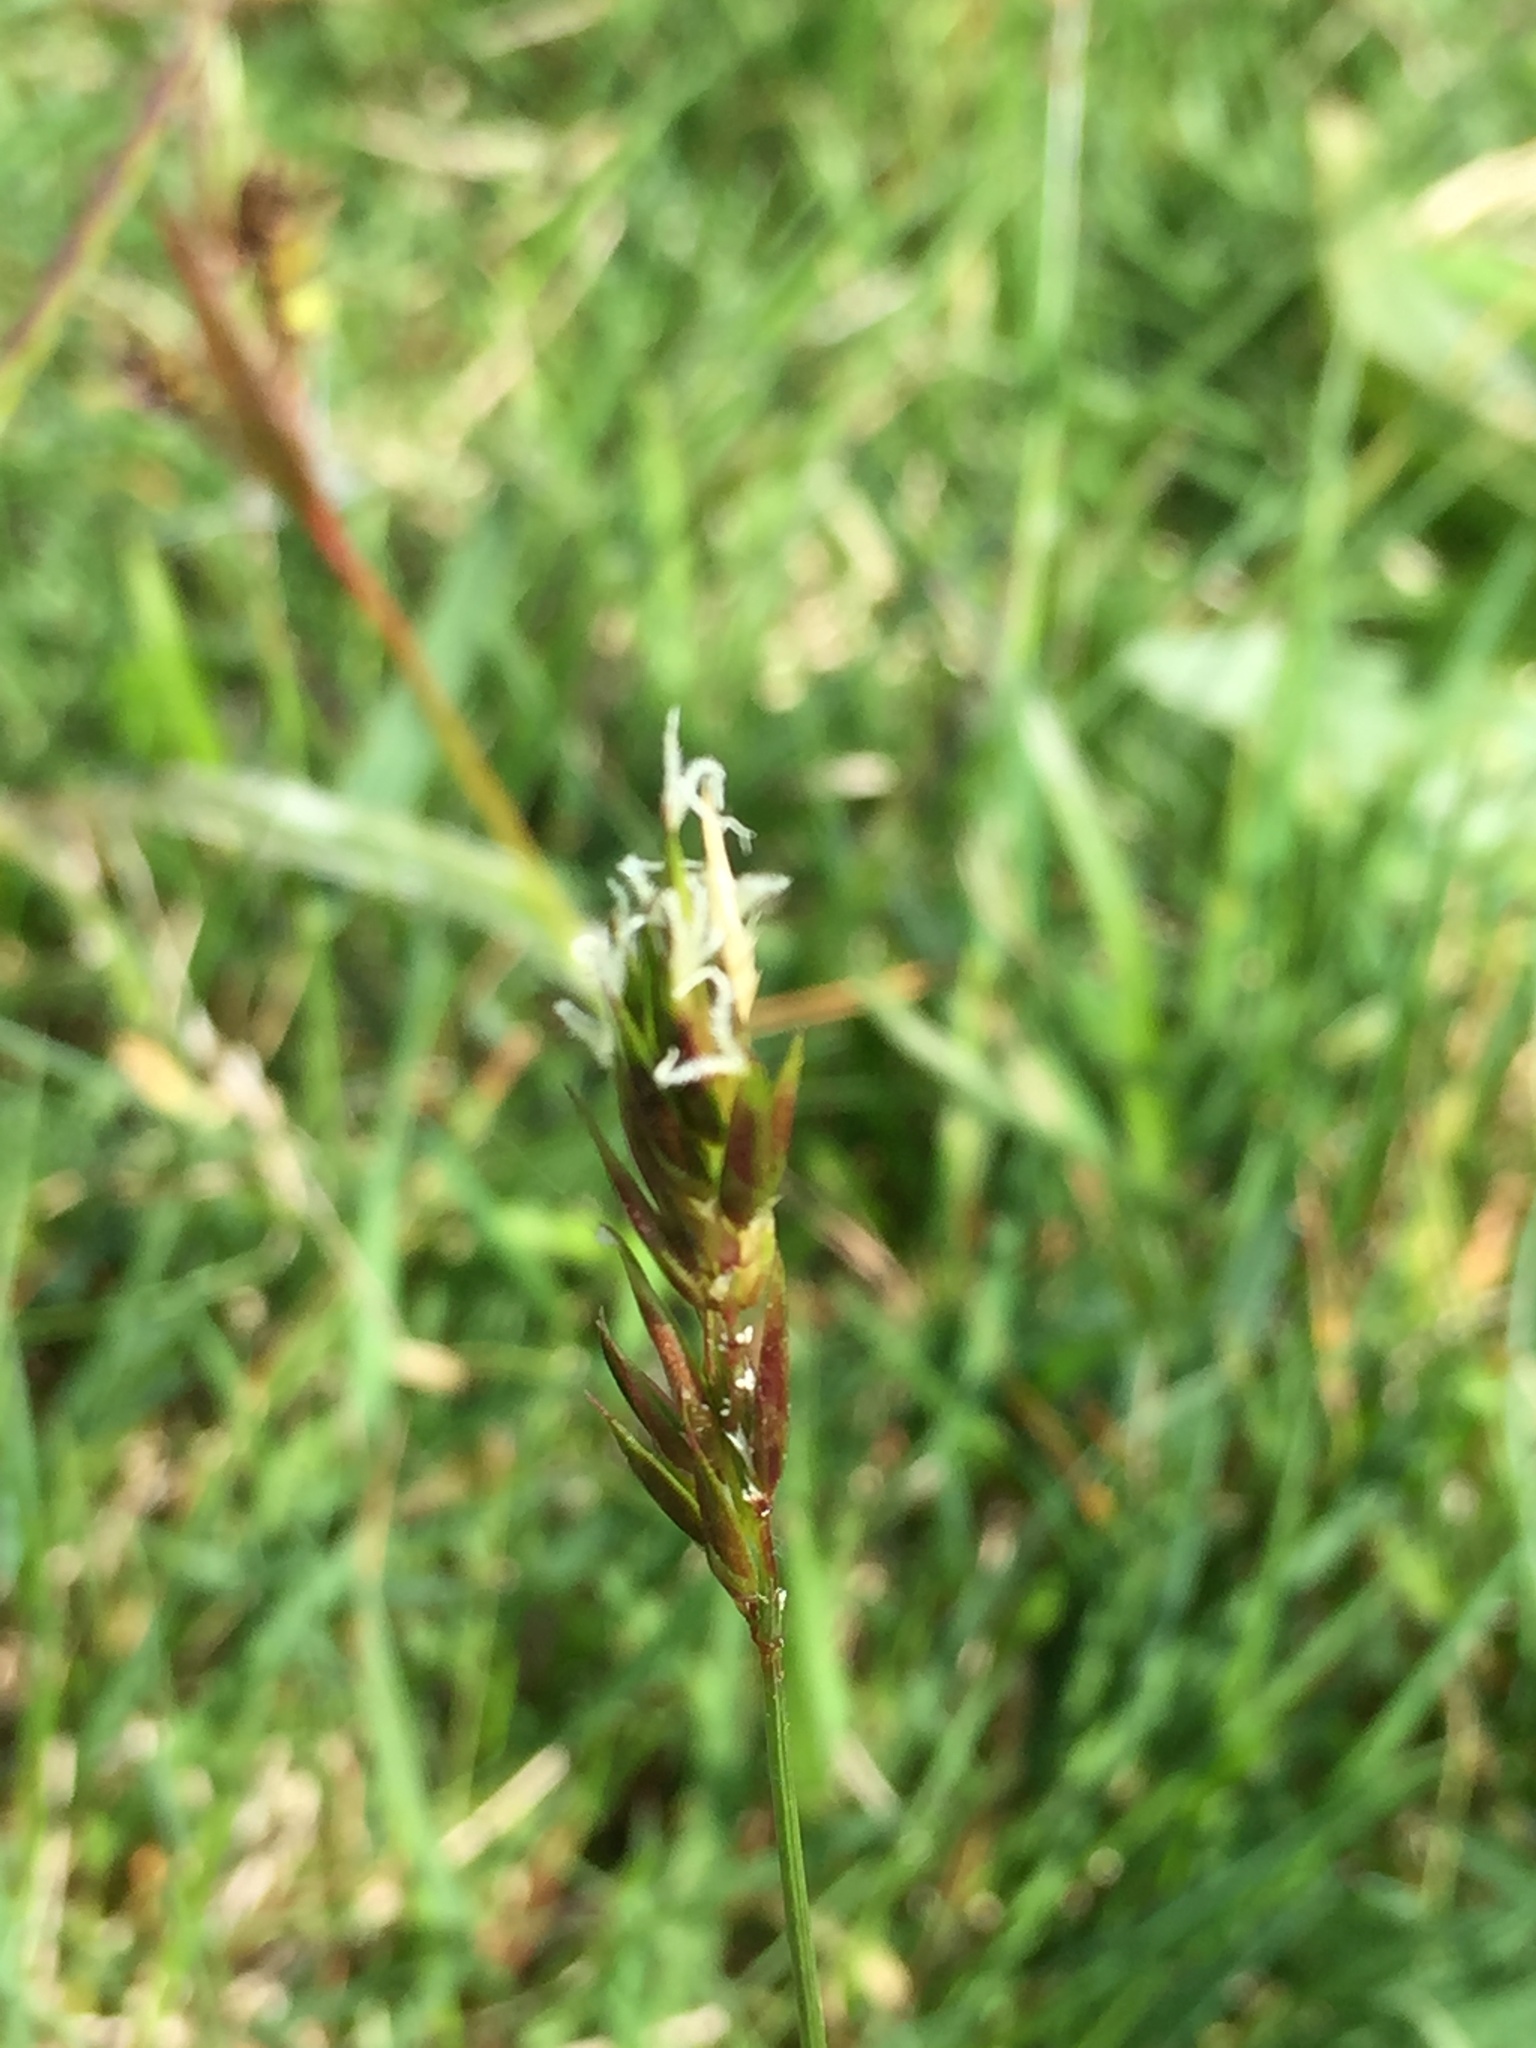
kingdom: Plantae
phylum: Tracheophyta
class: Liliopsida
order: Poales
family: Poaceae
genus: Anthoxanthum
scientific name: Anthoxanthum odoratum
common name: Sweet vernalgrass
